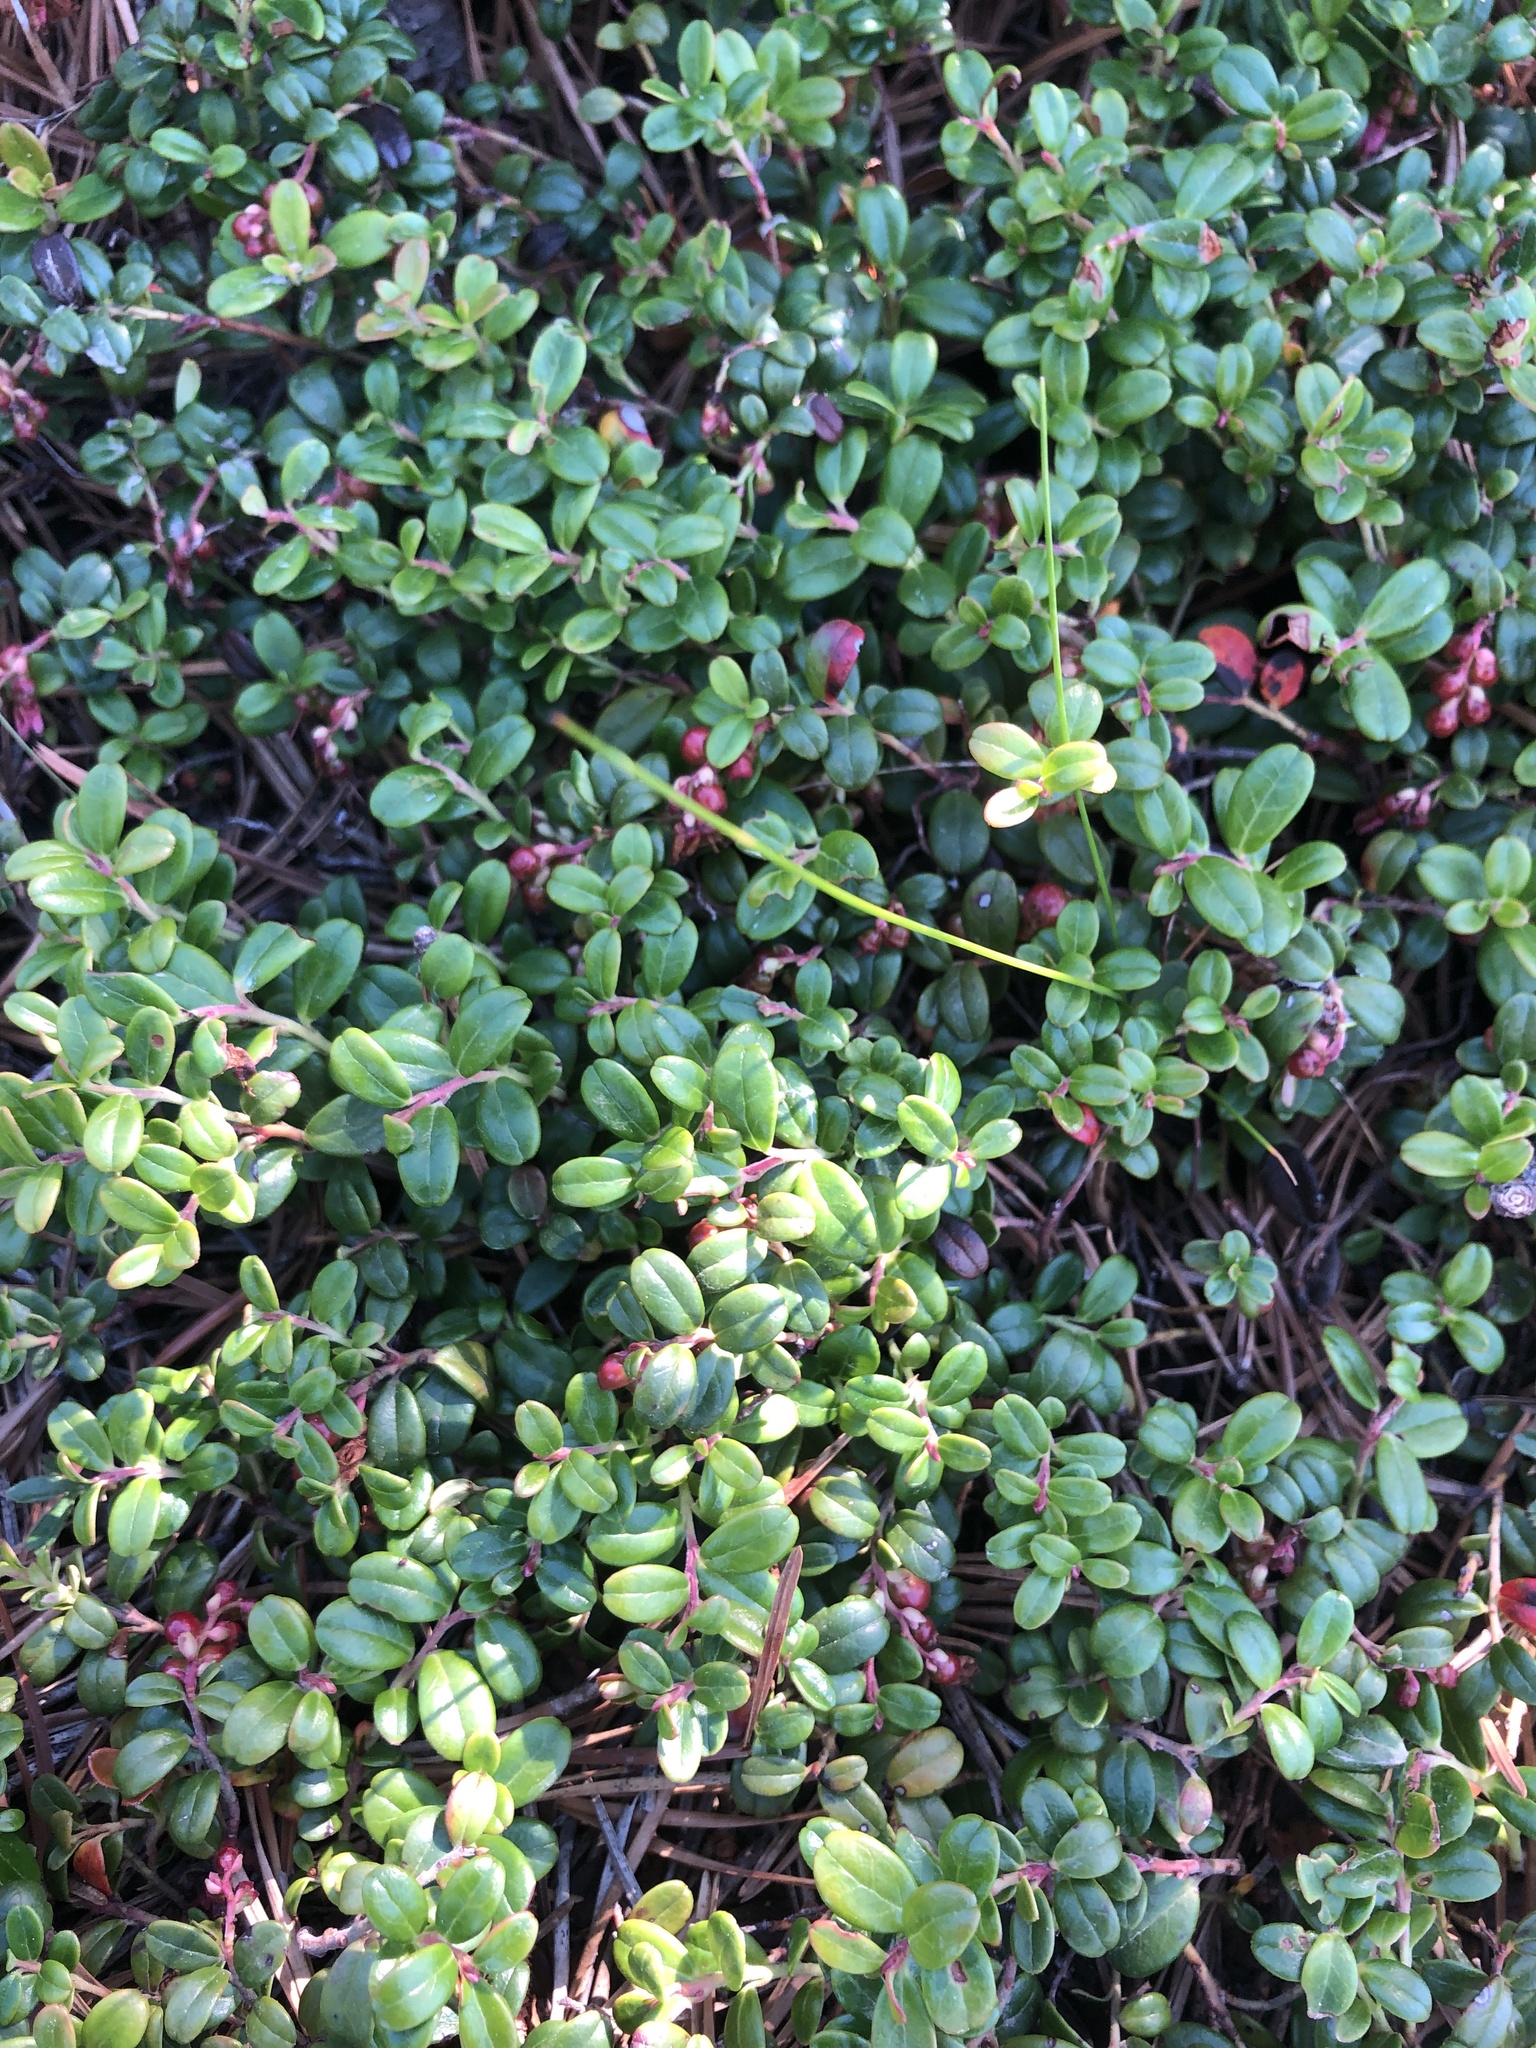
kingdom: Plantae
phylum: Tracheophyta
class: Magnoliopsida
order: Ericales
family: Ericaceae
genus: Vaccinium
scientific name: Vaccinium vitis-idaea
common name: Cowberry
